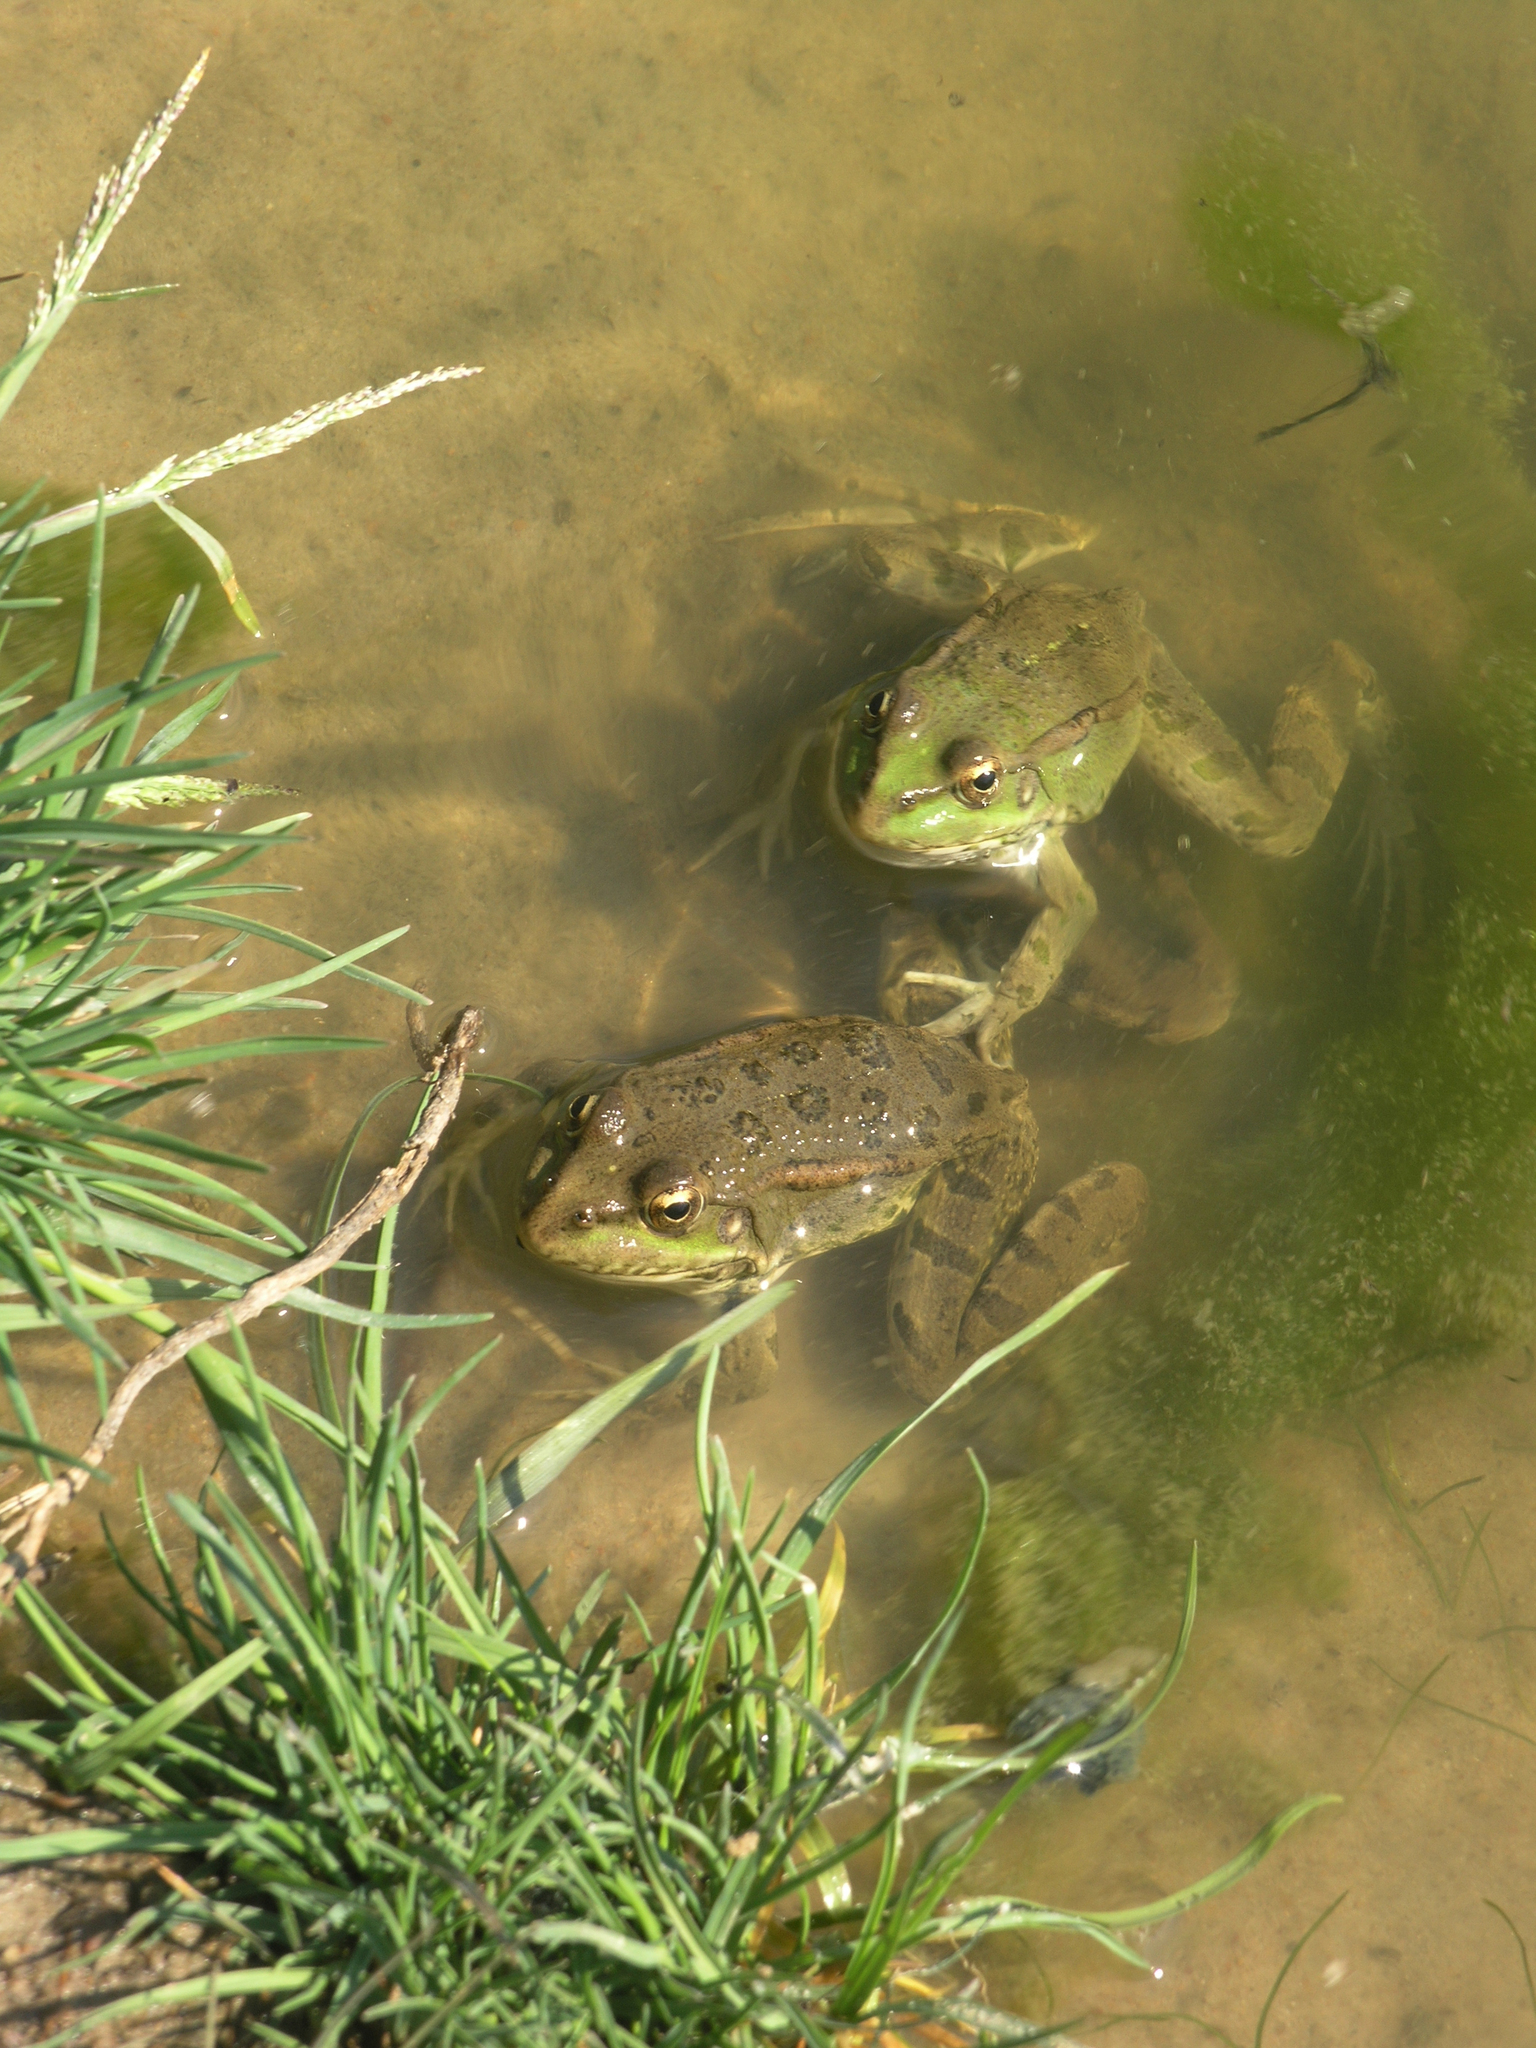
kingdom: Animalia
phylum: Chordata
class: Amphibia
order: Anura
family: Ranidae
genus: Pelophylax
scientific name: Pelophylax
